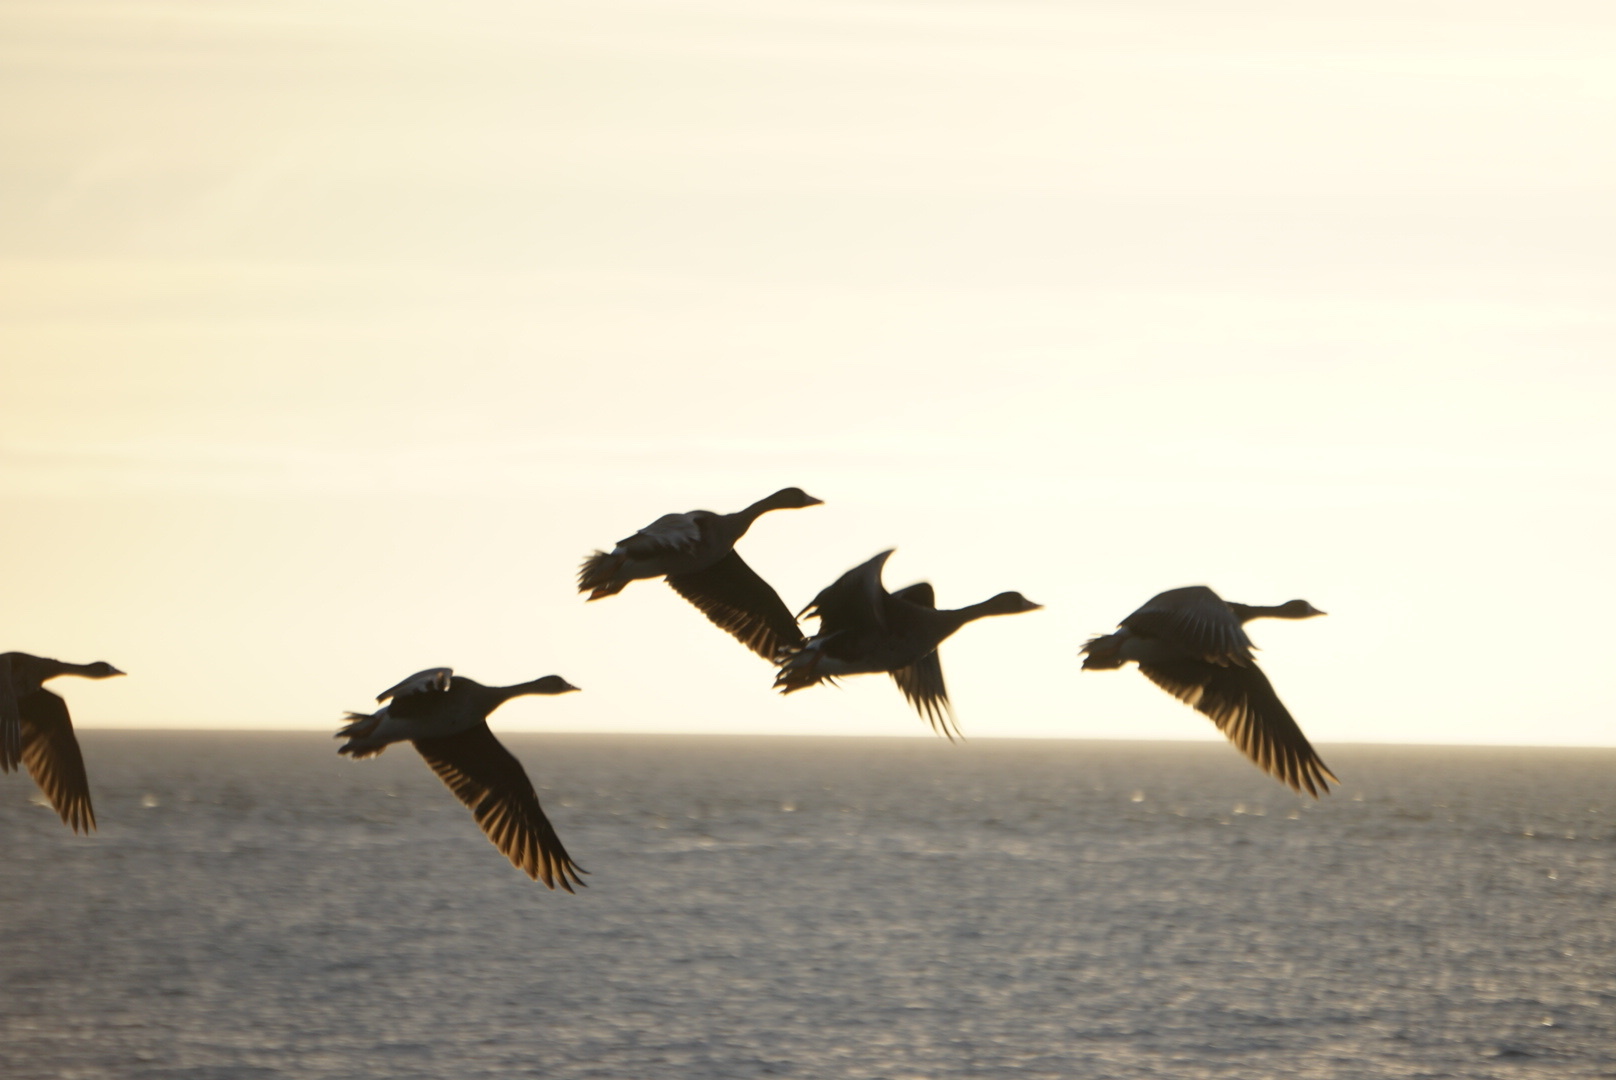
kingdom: Animalia
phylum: Chordata
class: Aves
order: Anseriformes
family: Anatidae
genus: Anser
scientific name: Anser albifrons
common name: Greater white-fronted goose
